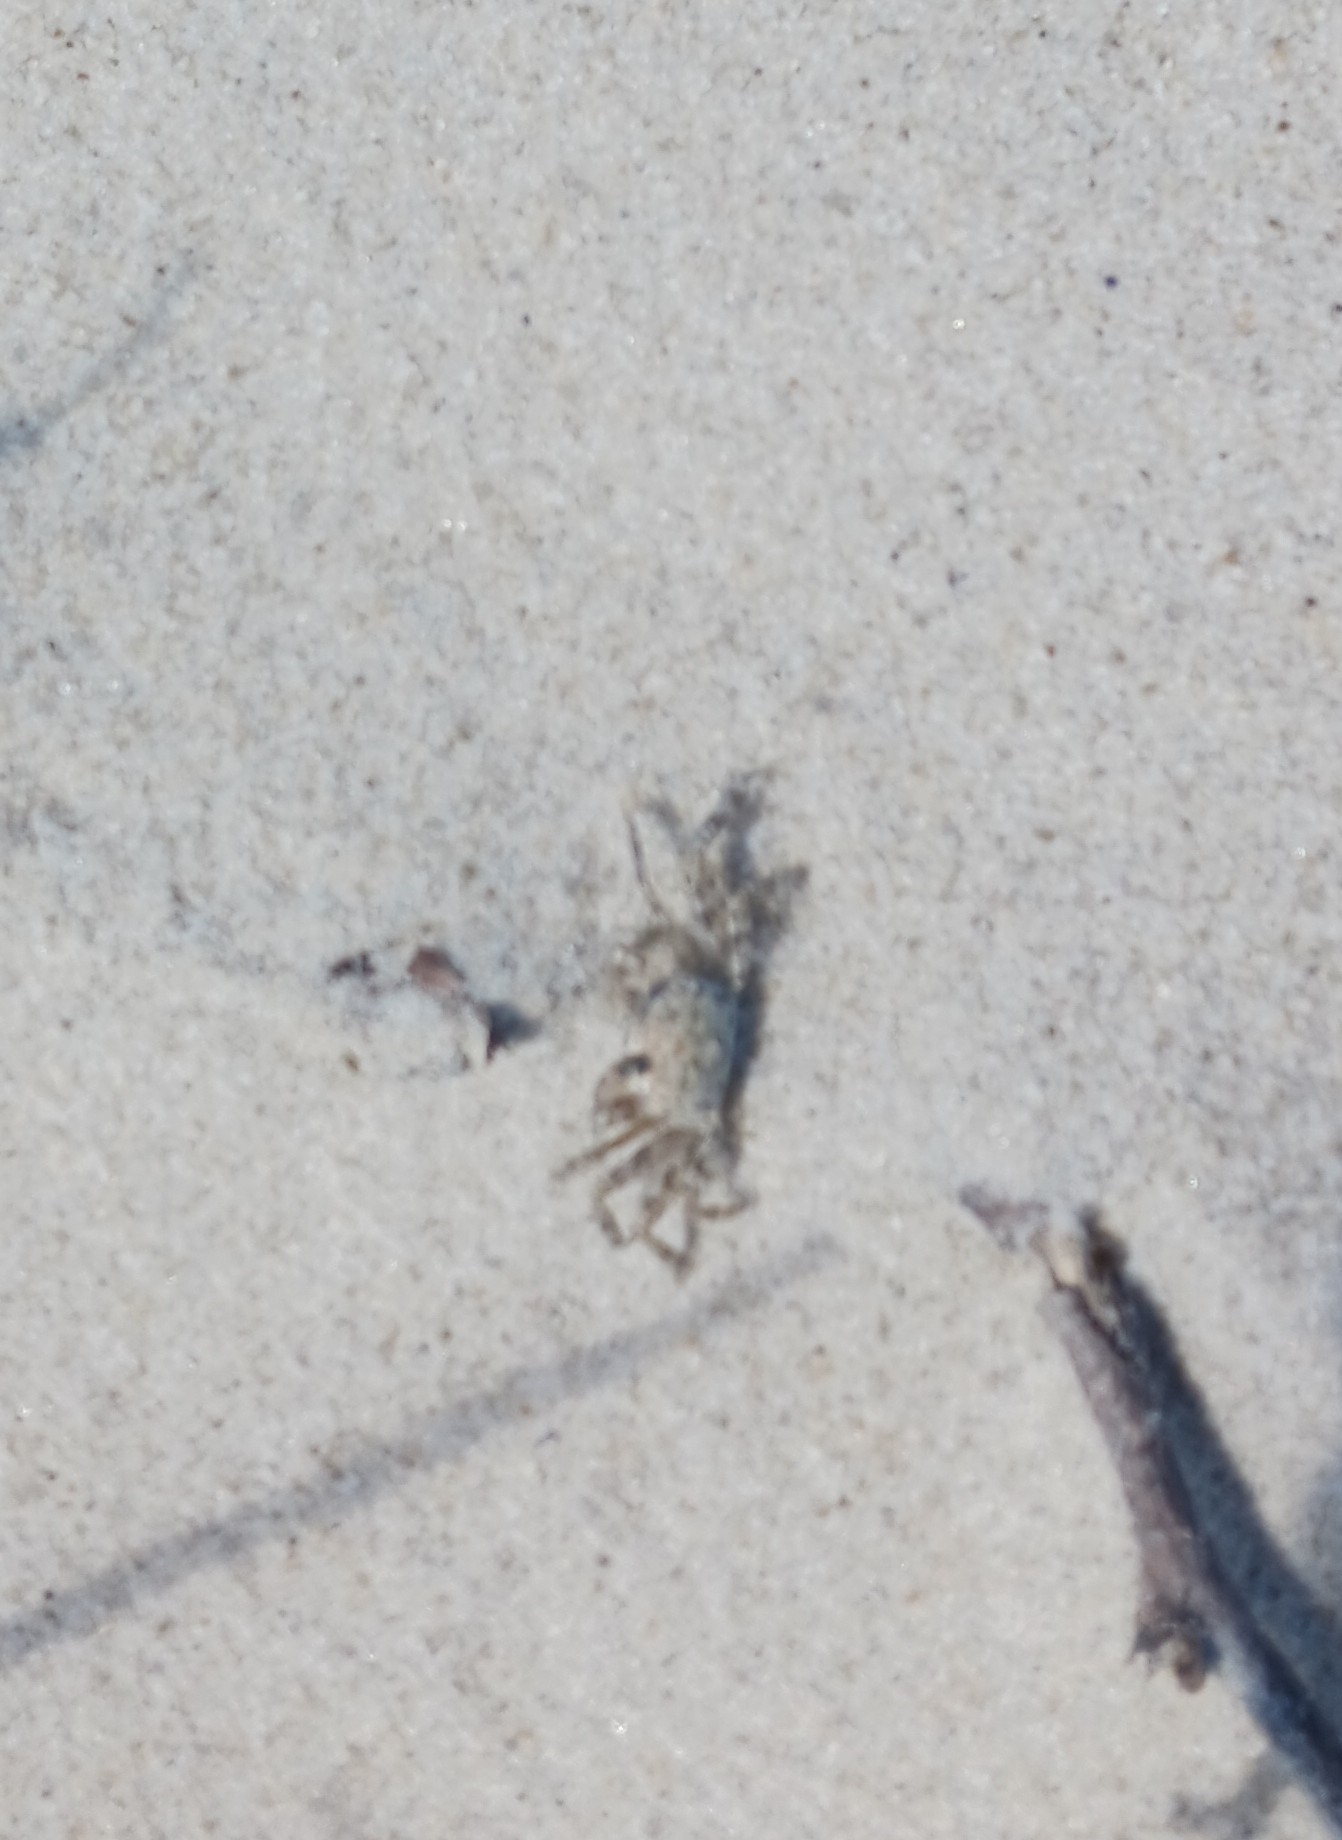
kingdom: Animalia
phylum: Arthropoda
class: Malacostraca
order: Decapoda
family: Ocypodidae
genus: Ocypode
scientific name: Ocypode quadrata
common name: Ghost crab
